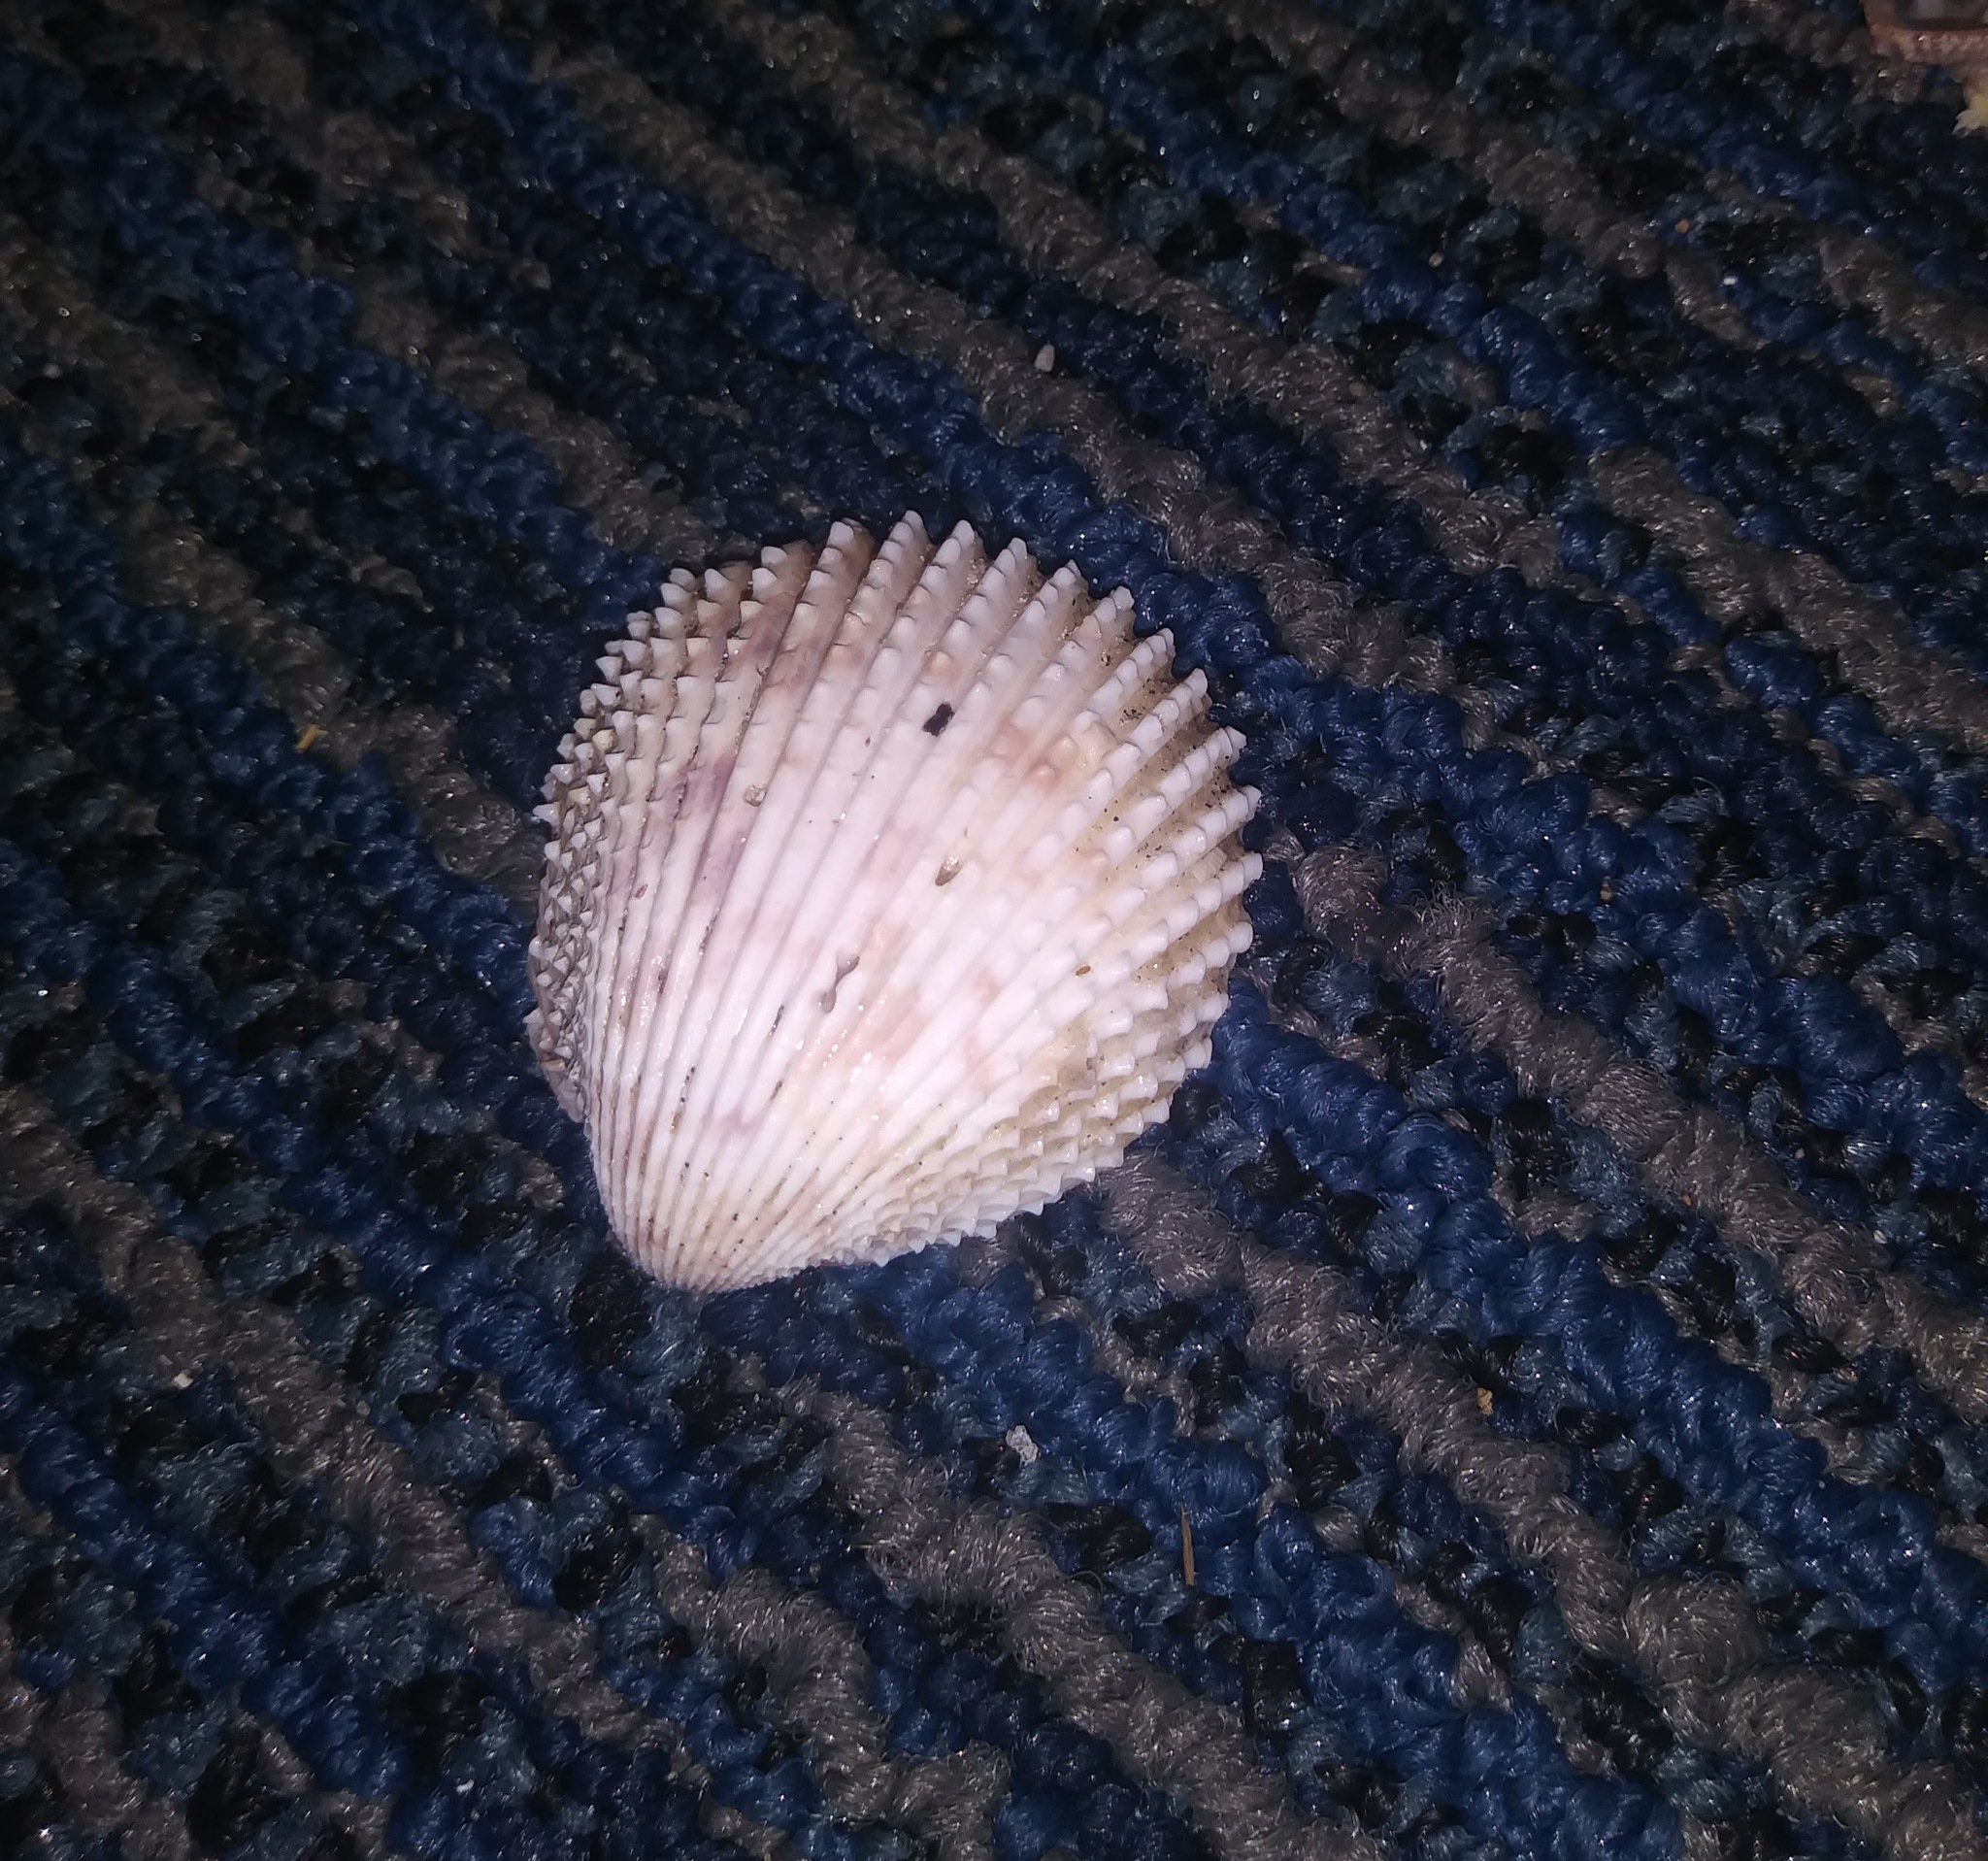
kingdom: Animalia
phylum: Mollusca
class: Bivalvia
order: Cardiida
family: Cardiidae
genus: Trachycardium
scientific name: Trachycardium egmontianum
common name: Florida pricklycockle
